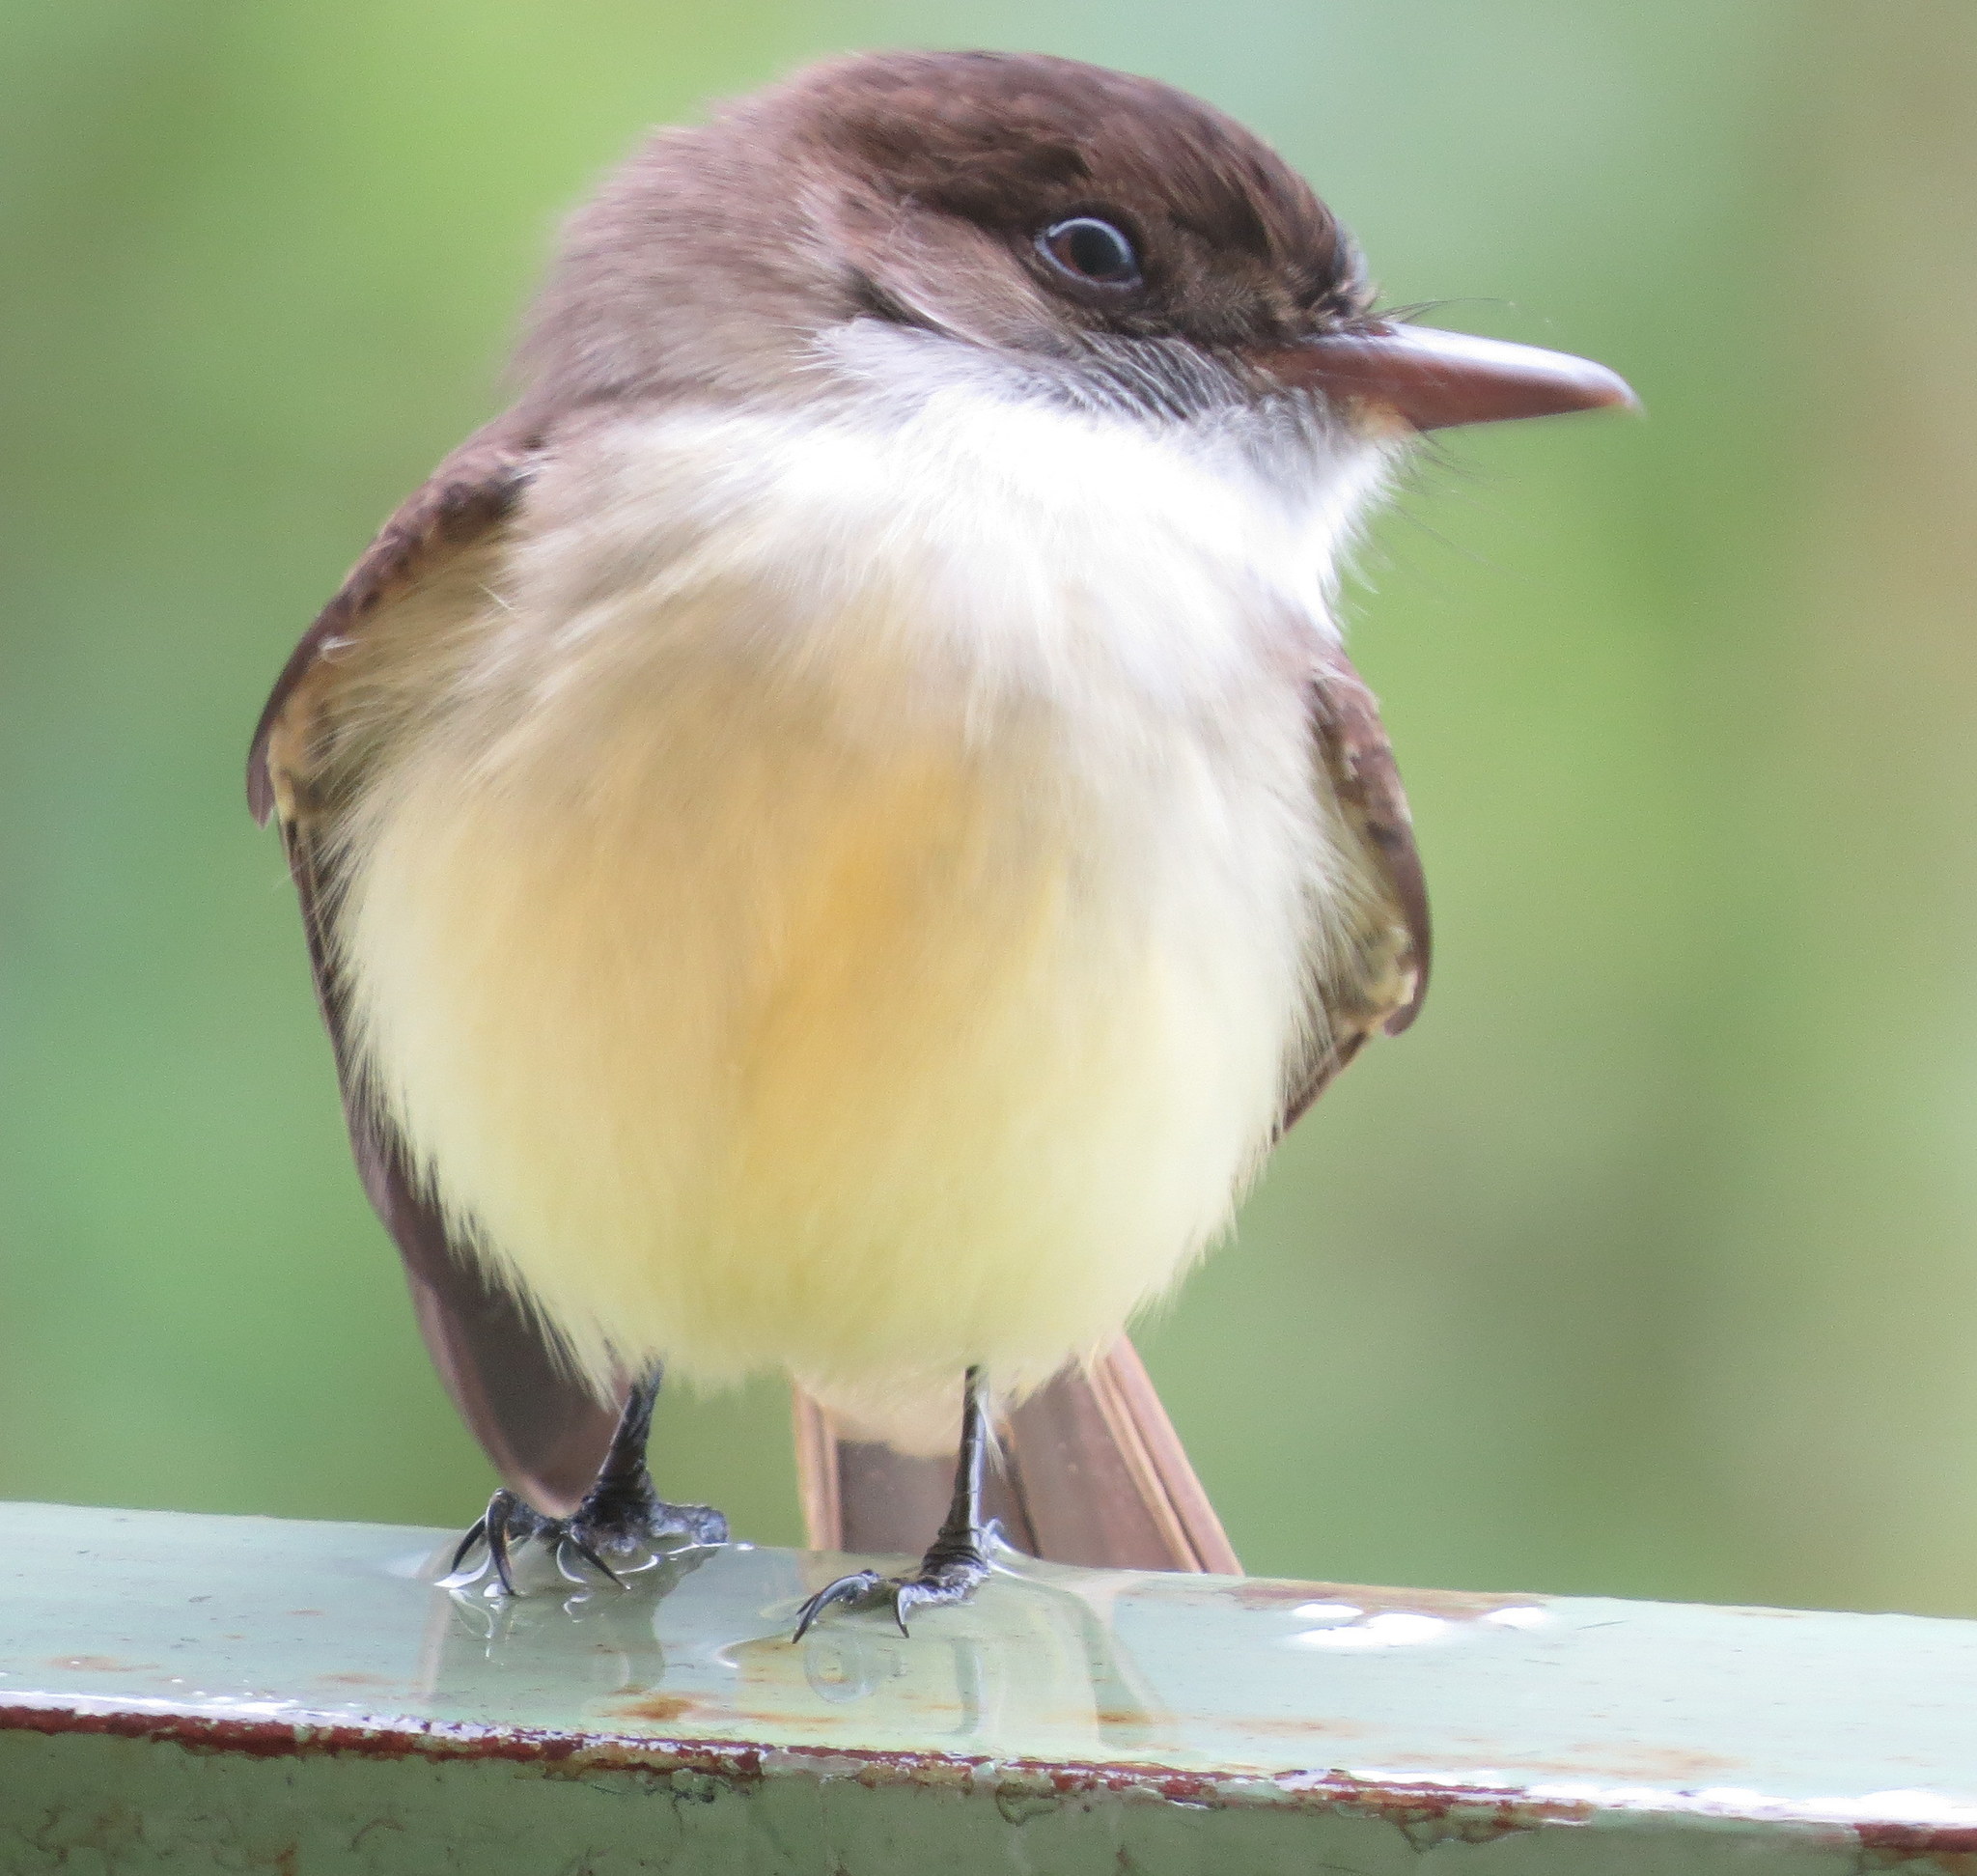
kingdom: Animalia
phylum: Chordata
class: Aves
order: Passeriformes
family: Tyrannidae
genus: Myiarchus
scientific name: Myiarchus barbirostris
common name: Sad flycatcher
